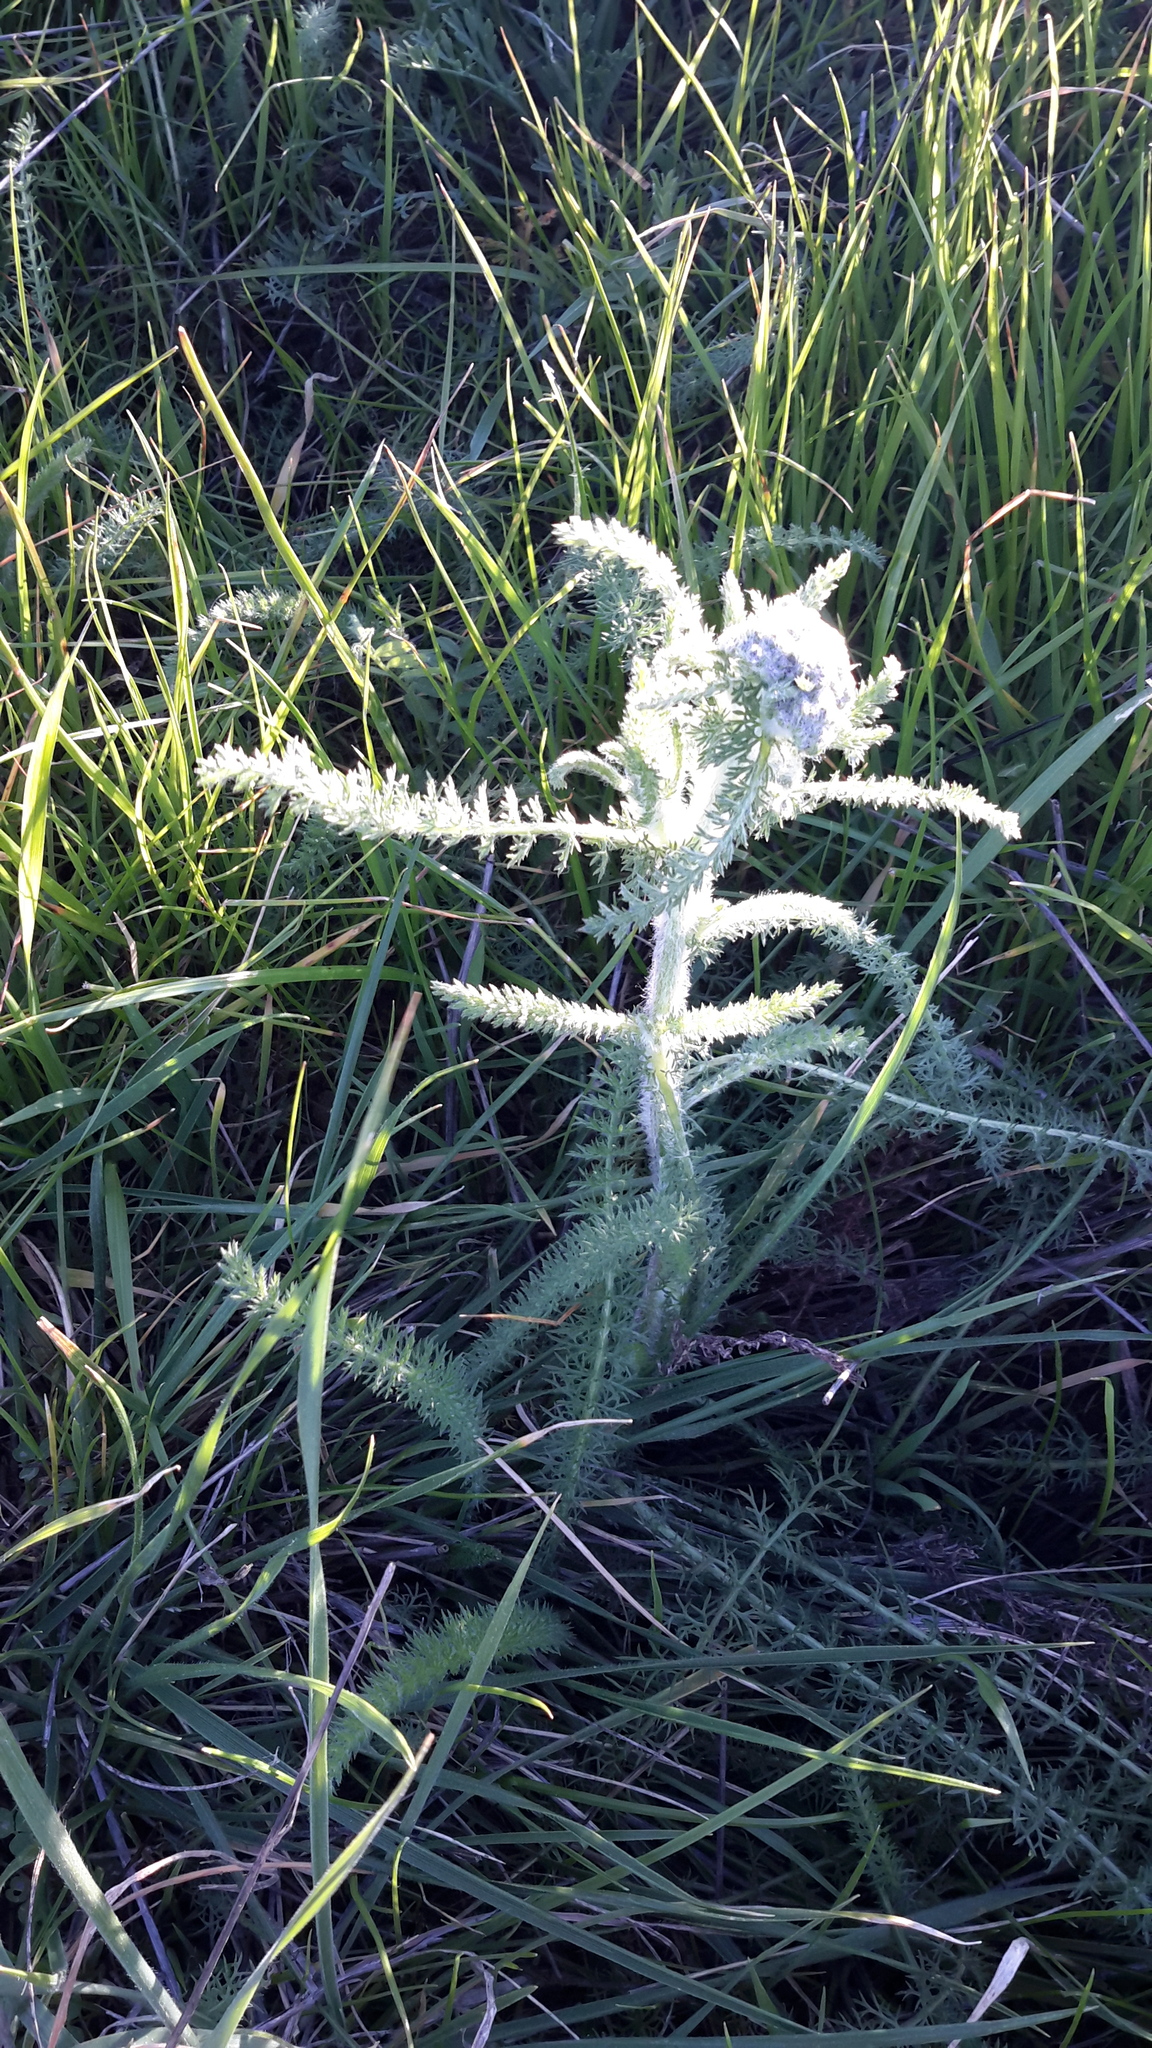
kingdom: Plantae
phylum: Tracheophyta
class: Magnoliopsida
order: Asterales
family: Asteraceae
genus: Achillea
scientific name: Achillea millefolium
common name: Yarrow
